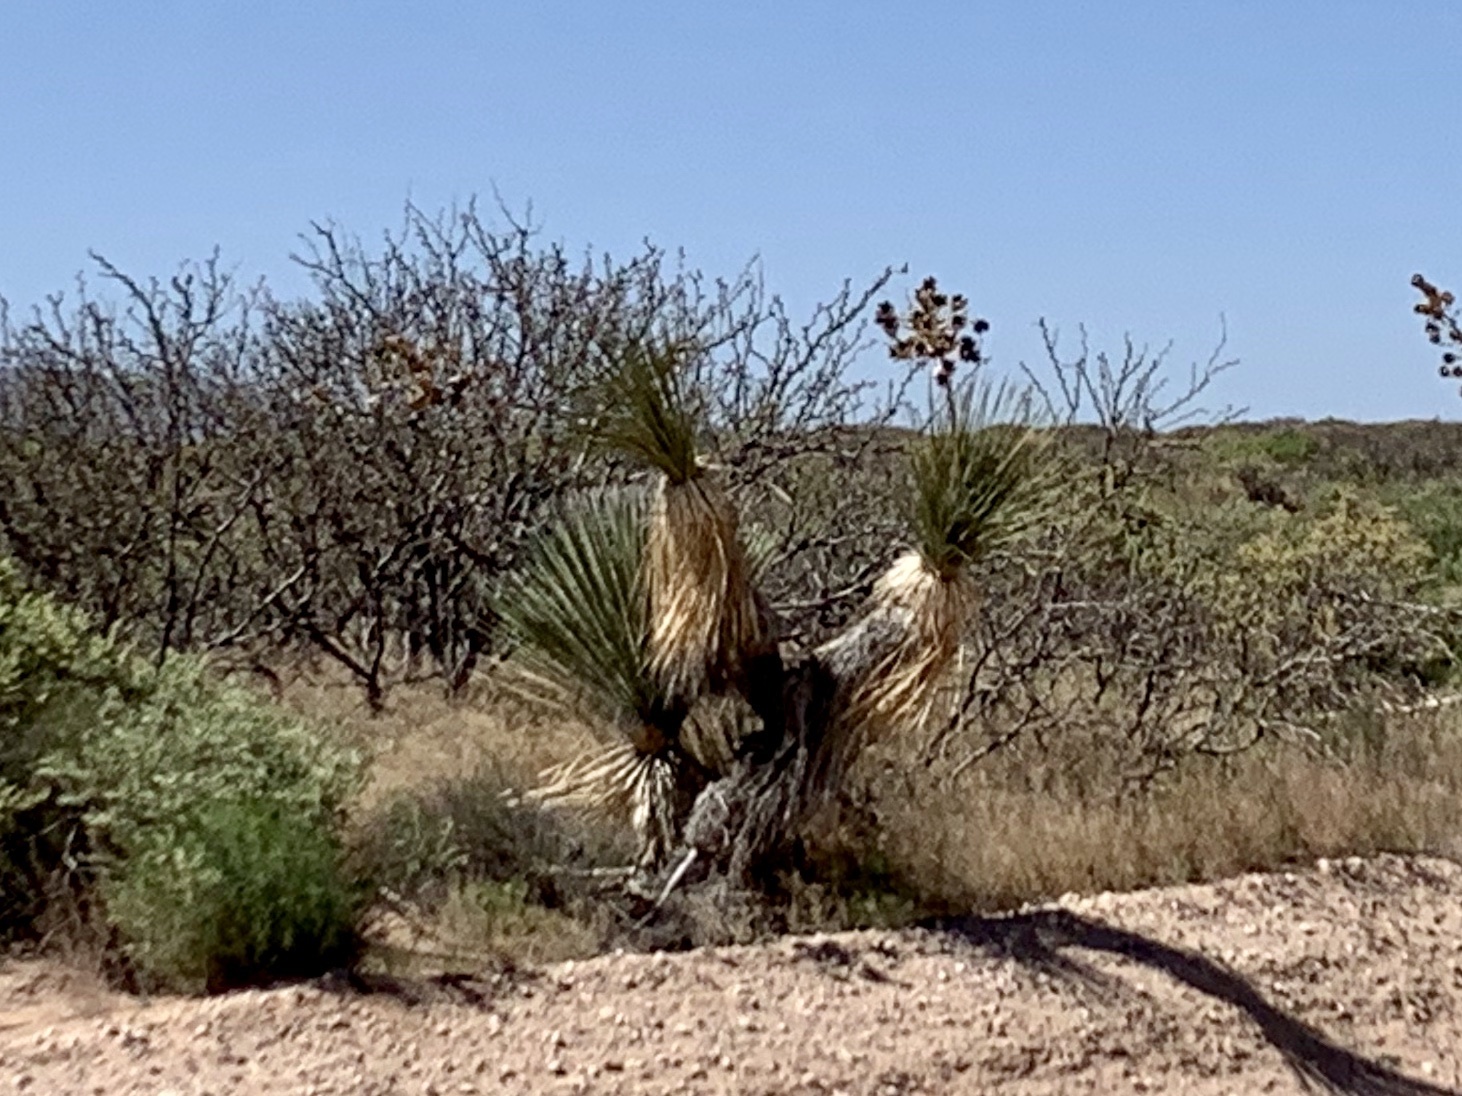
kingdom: Plantae
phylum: Tracheophyta
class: Liliopsida
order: Asparagales
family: Asparagaceae
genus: Yucca
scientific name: Yucca elata
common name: Palmella
